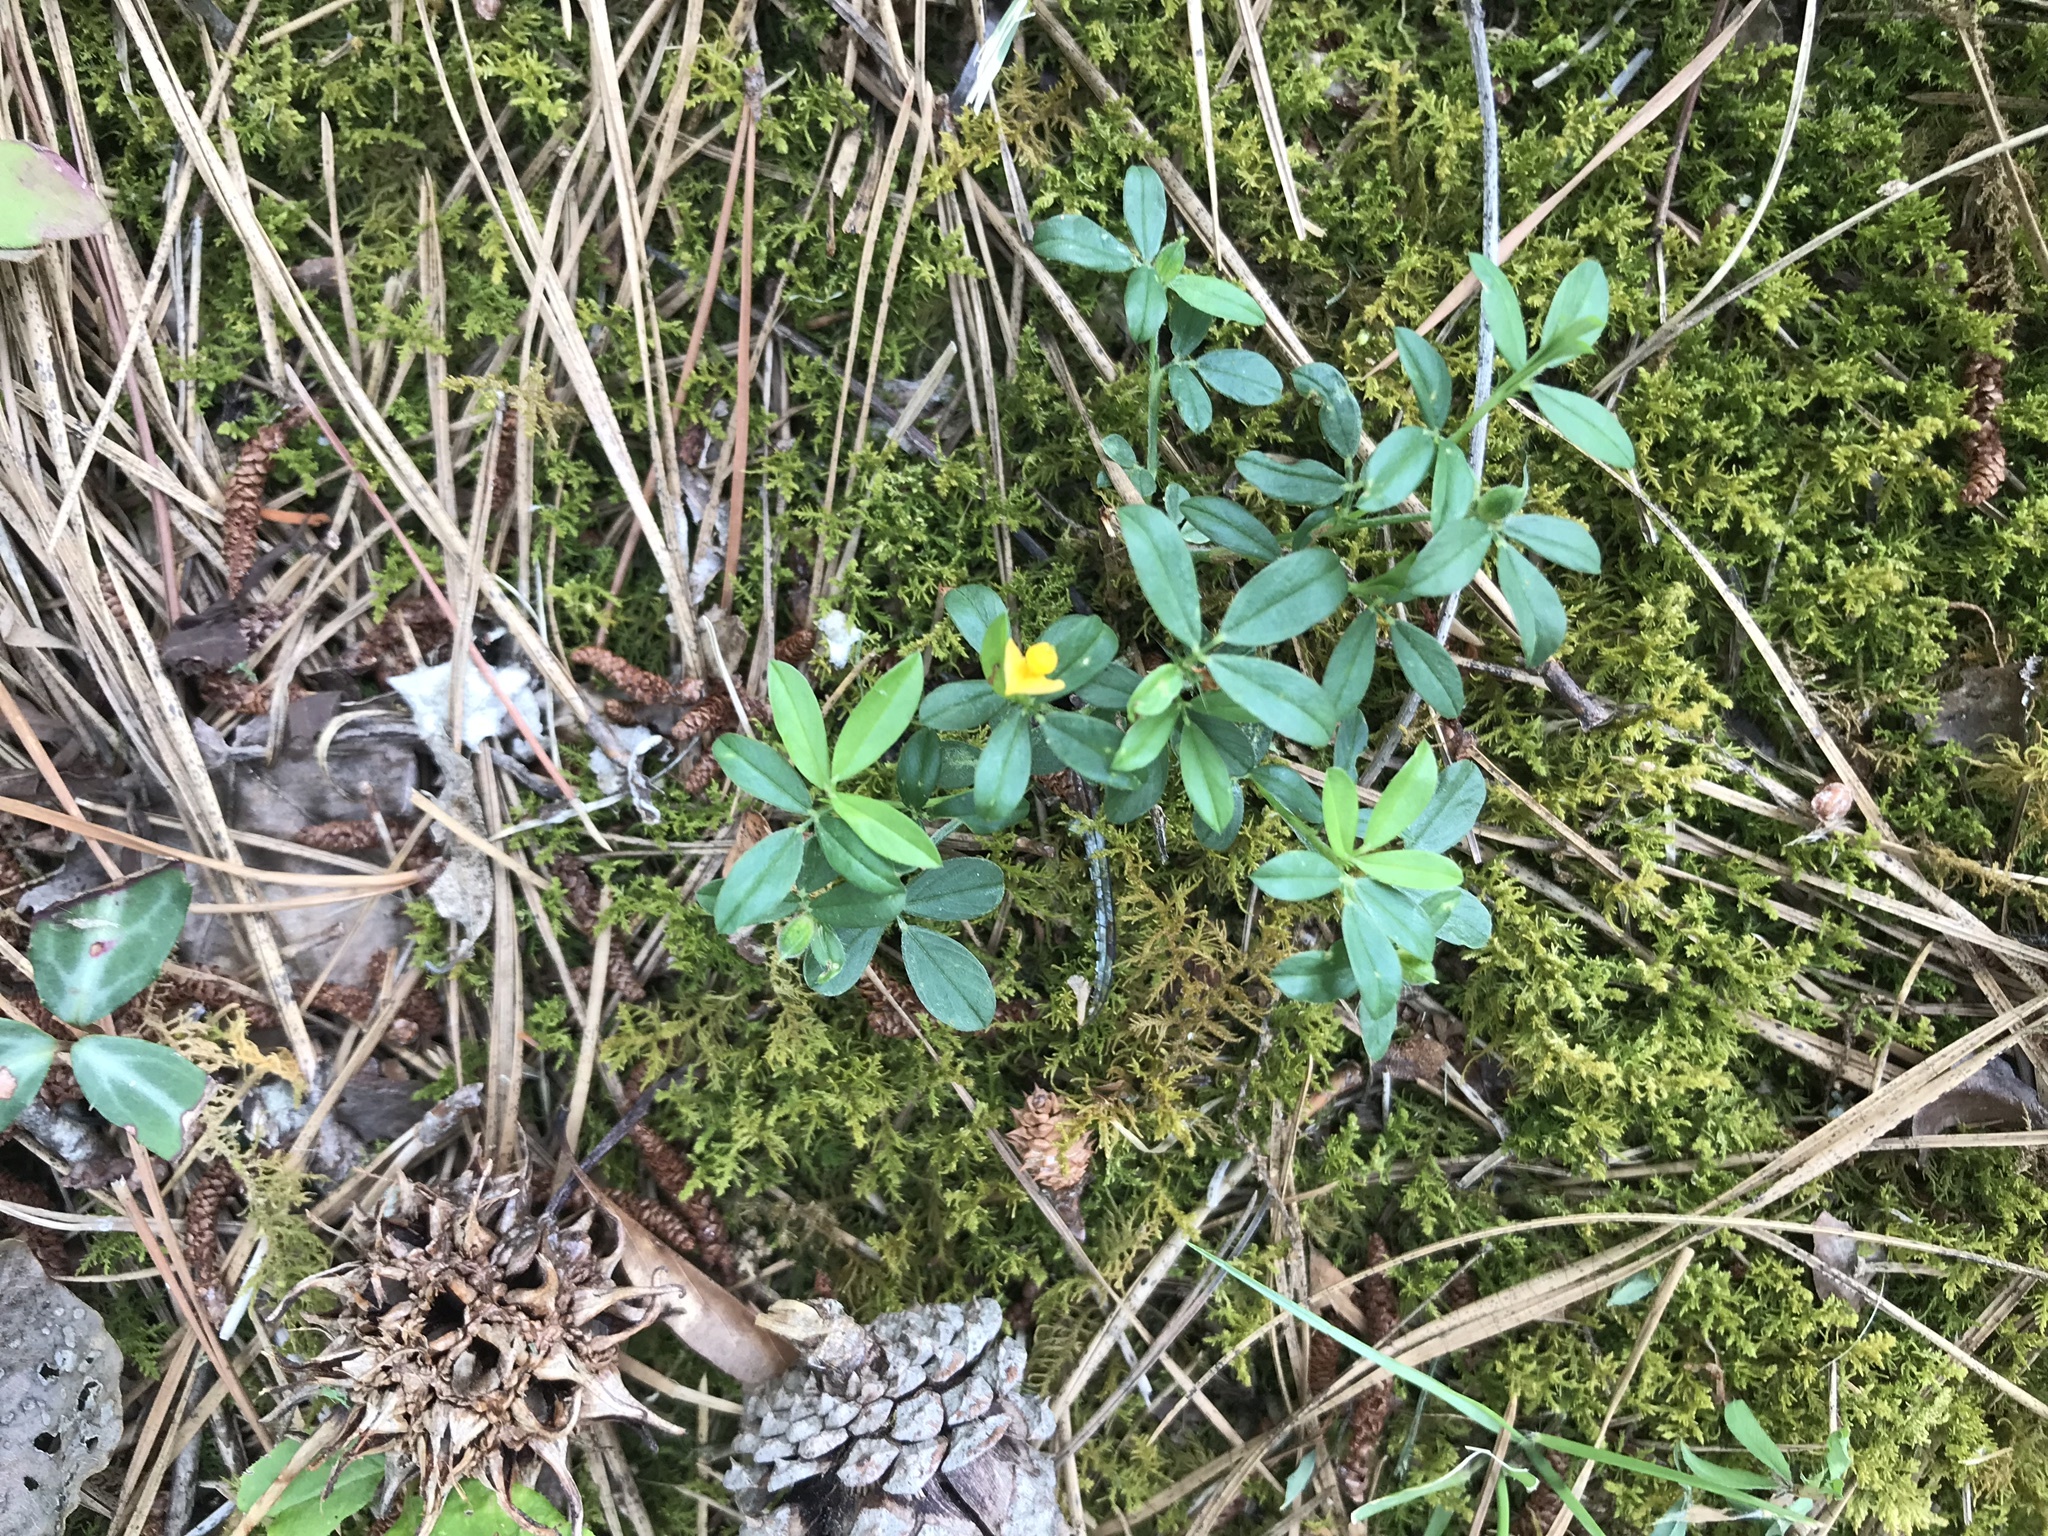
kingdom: Plantae
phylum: Tracheophyta
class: Magnoliopsida
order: Fabales
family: Fabaceae
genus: Stylosanthes
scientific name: Stylosanthes biflora
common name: Two-flower pencil-flower
